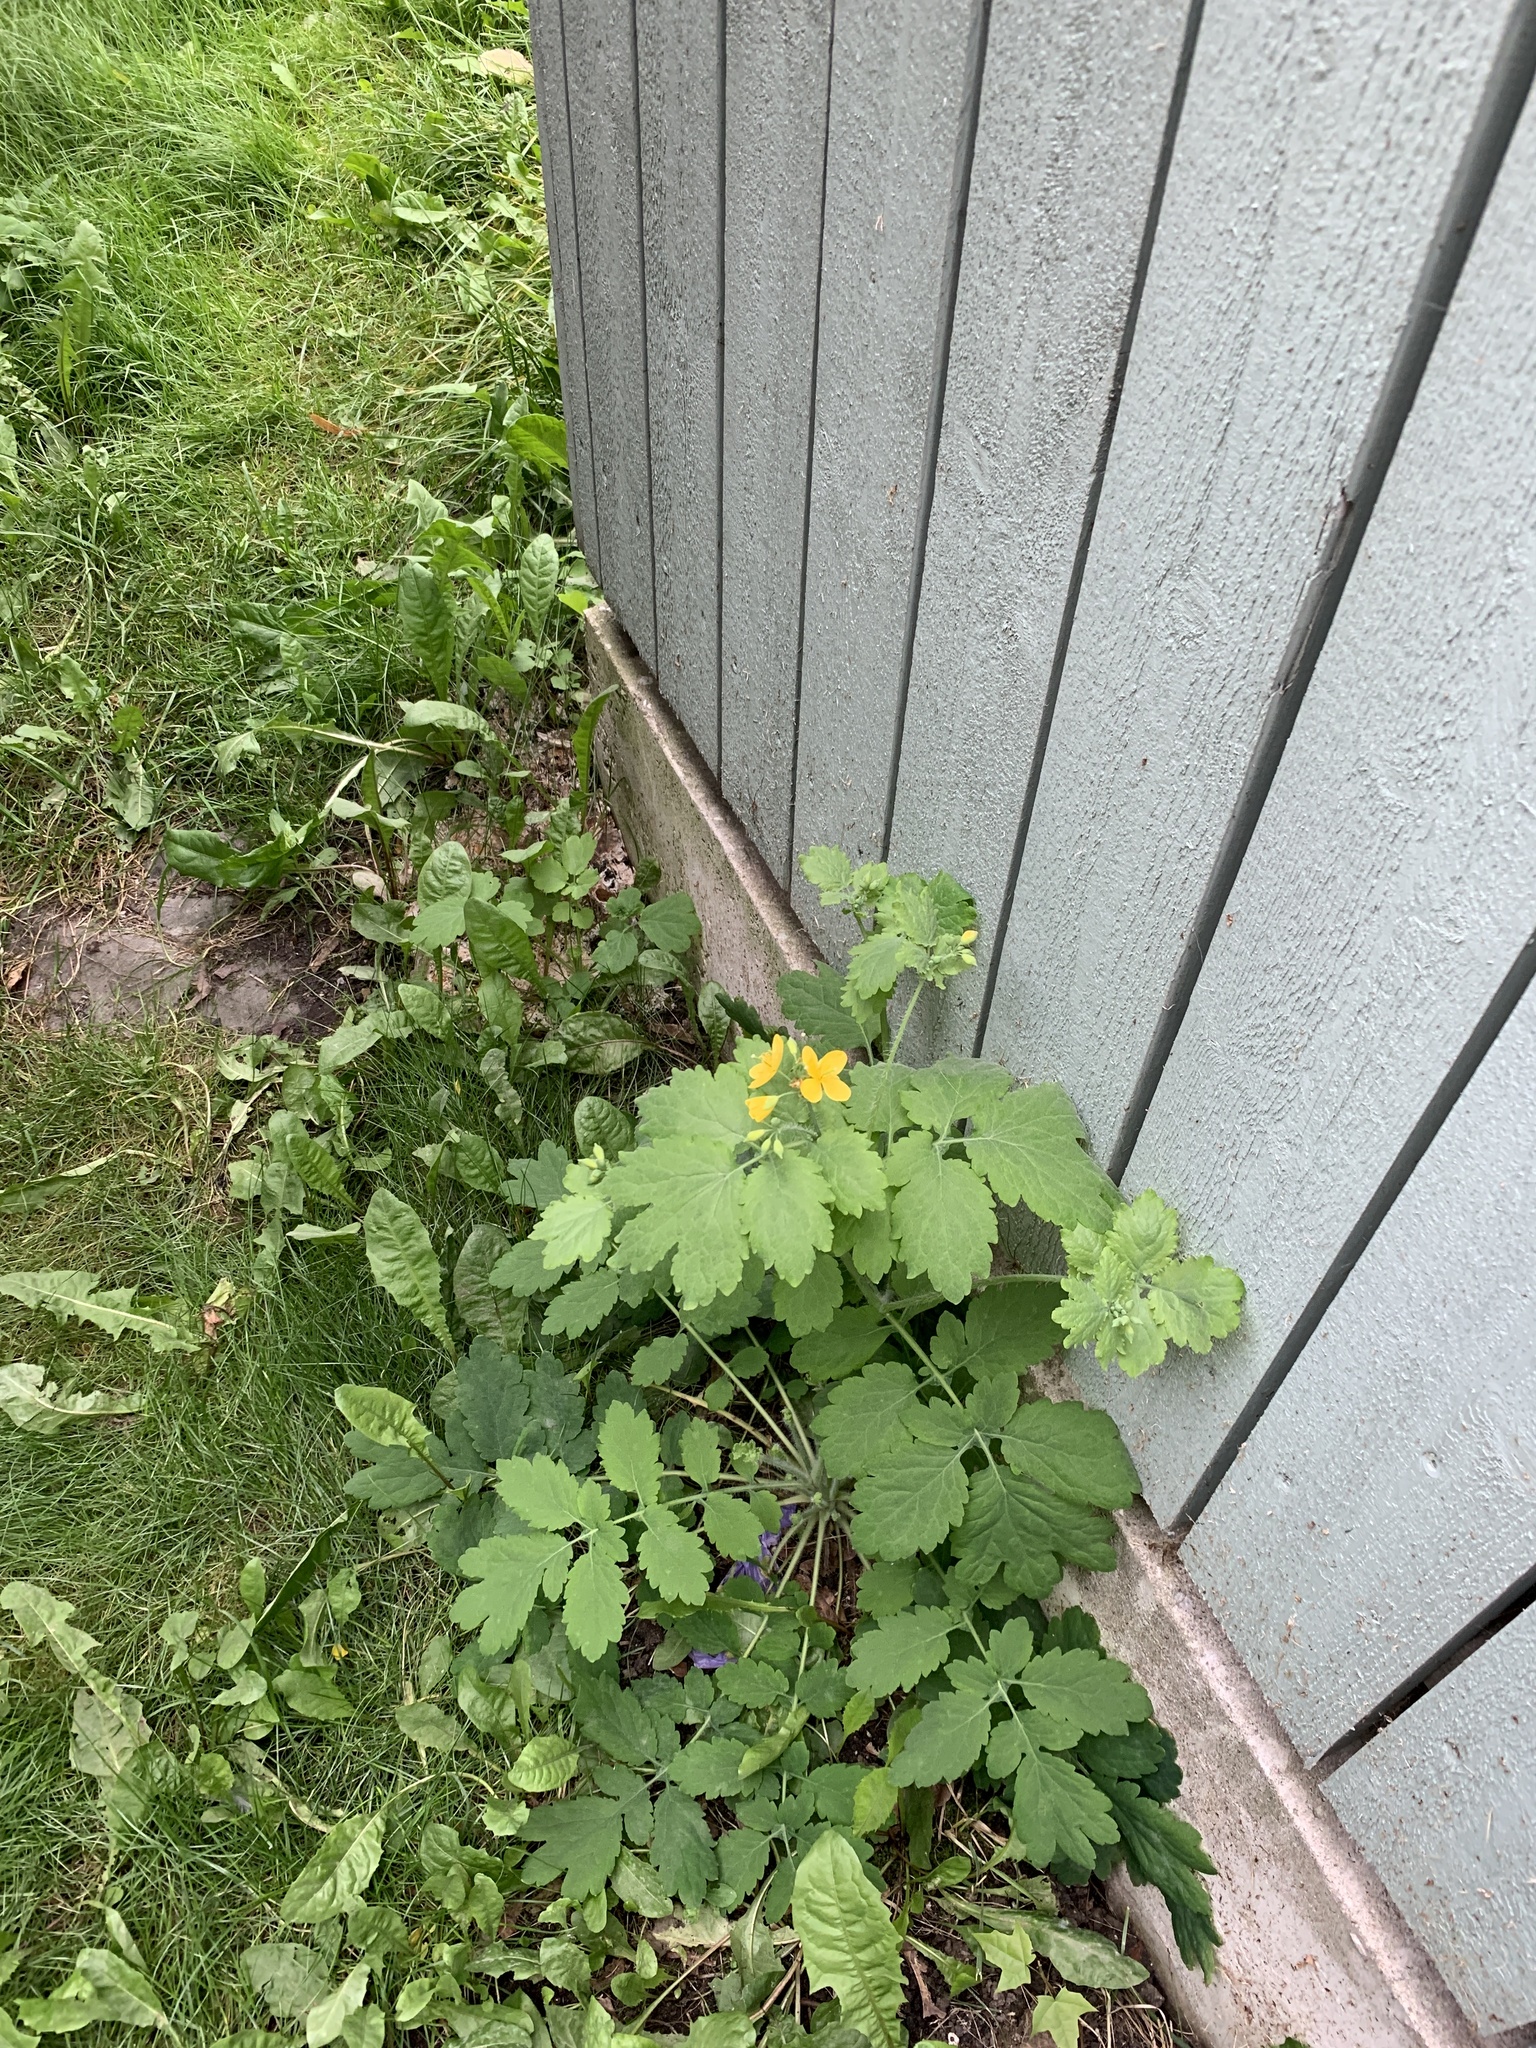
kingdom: Plantae
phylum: Tracheophyta
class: Magnoliopsida
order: Ranunculales
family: Papaveraceae
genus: Chelidonium
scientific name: Chelidonium majus
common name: Greater celandine
